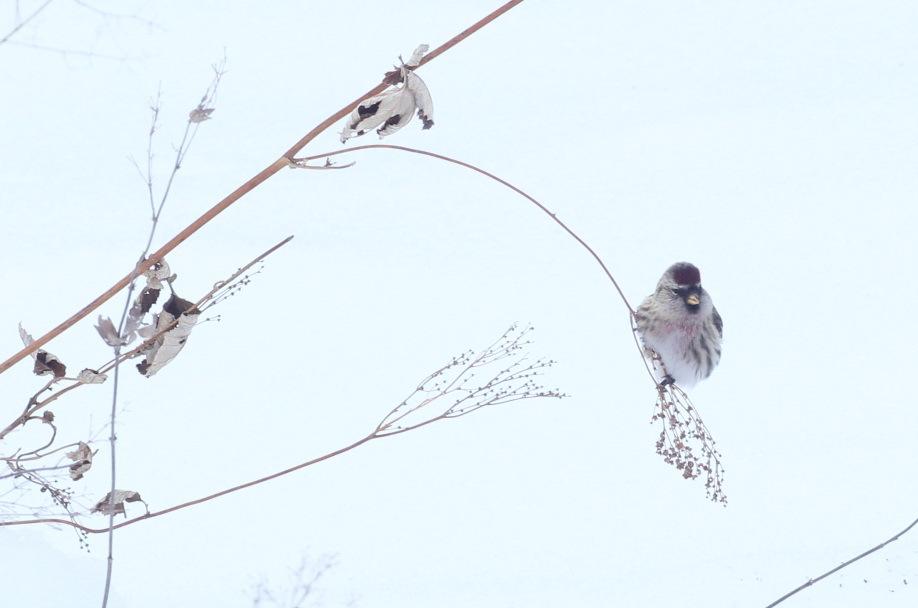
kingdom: Animalia
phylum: Chordata
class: Aves
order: Passeriformes
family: Fringillidae
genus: Acanthis
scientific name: Acanthis flammea
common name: Common redpoll
